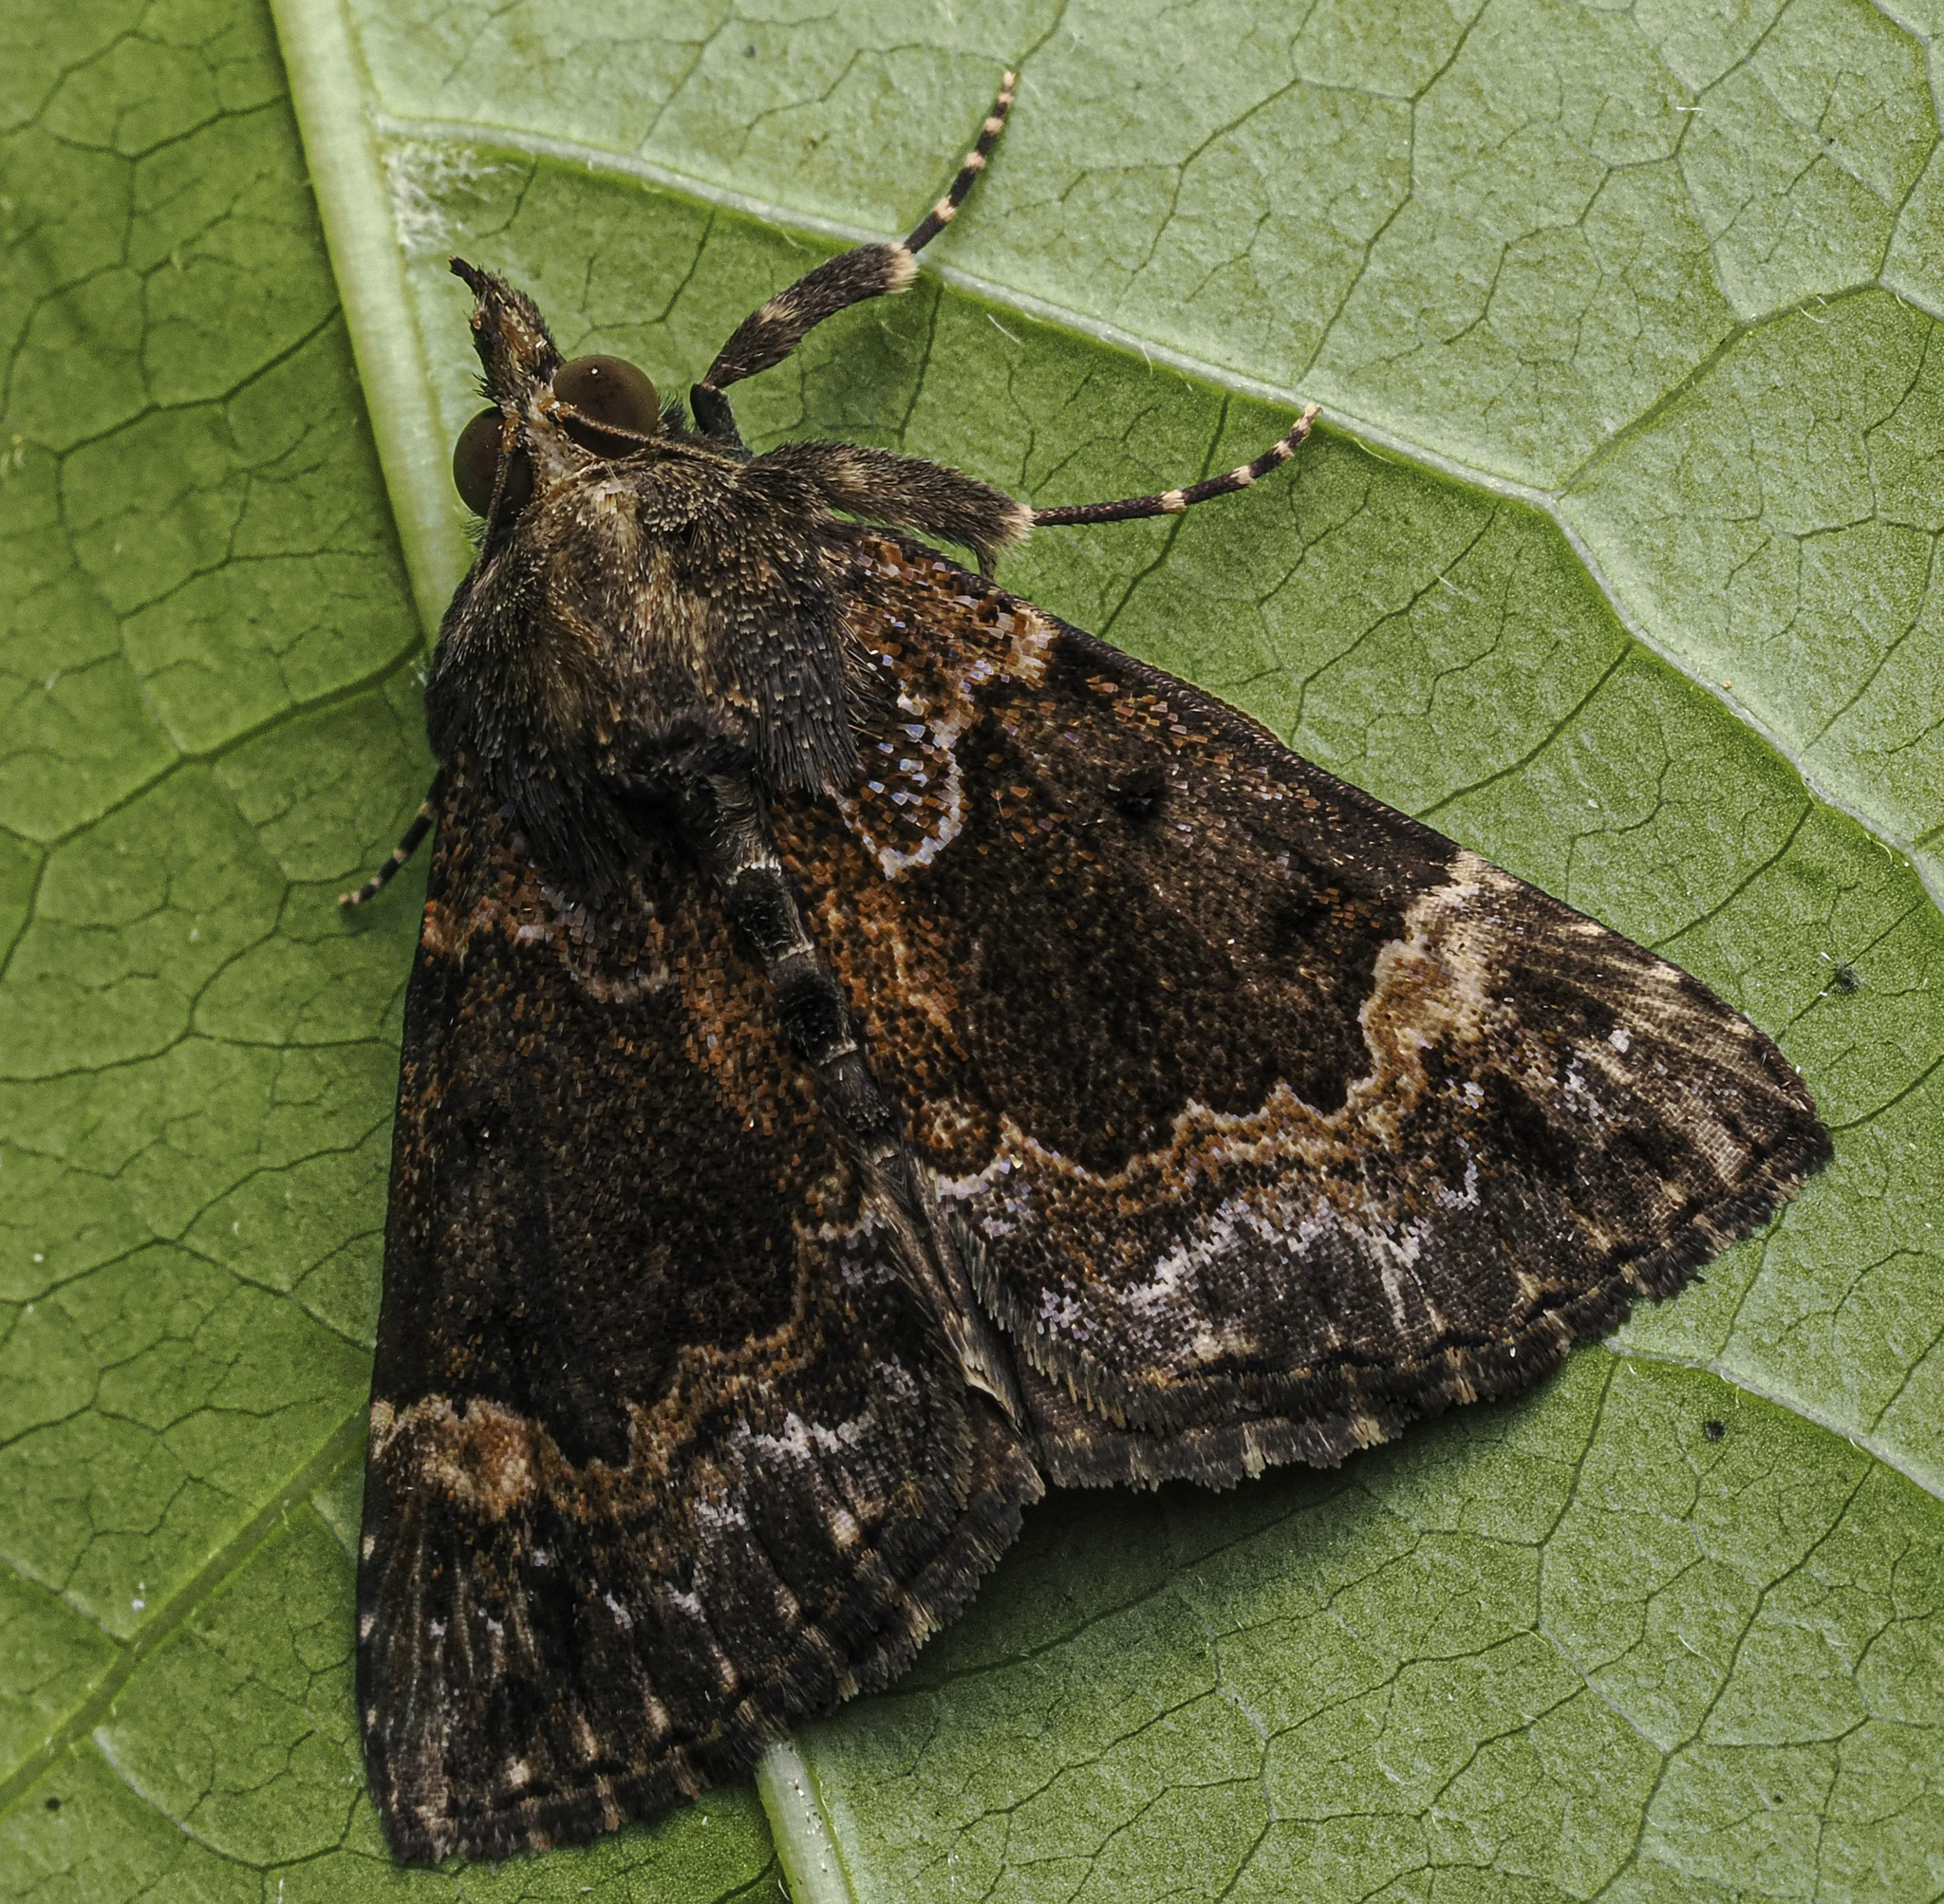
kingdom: Animalia
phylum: Arthropoda
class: Insecta
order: Lepidoptera
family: Erebidae
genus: Hypena
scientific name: Hypena palparia
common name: Mottled bomolocha moth
